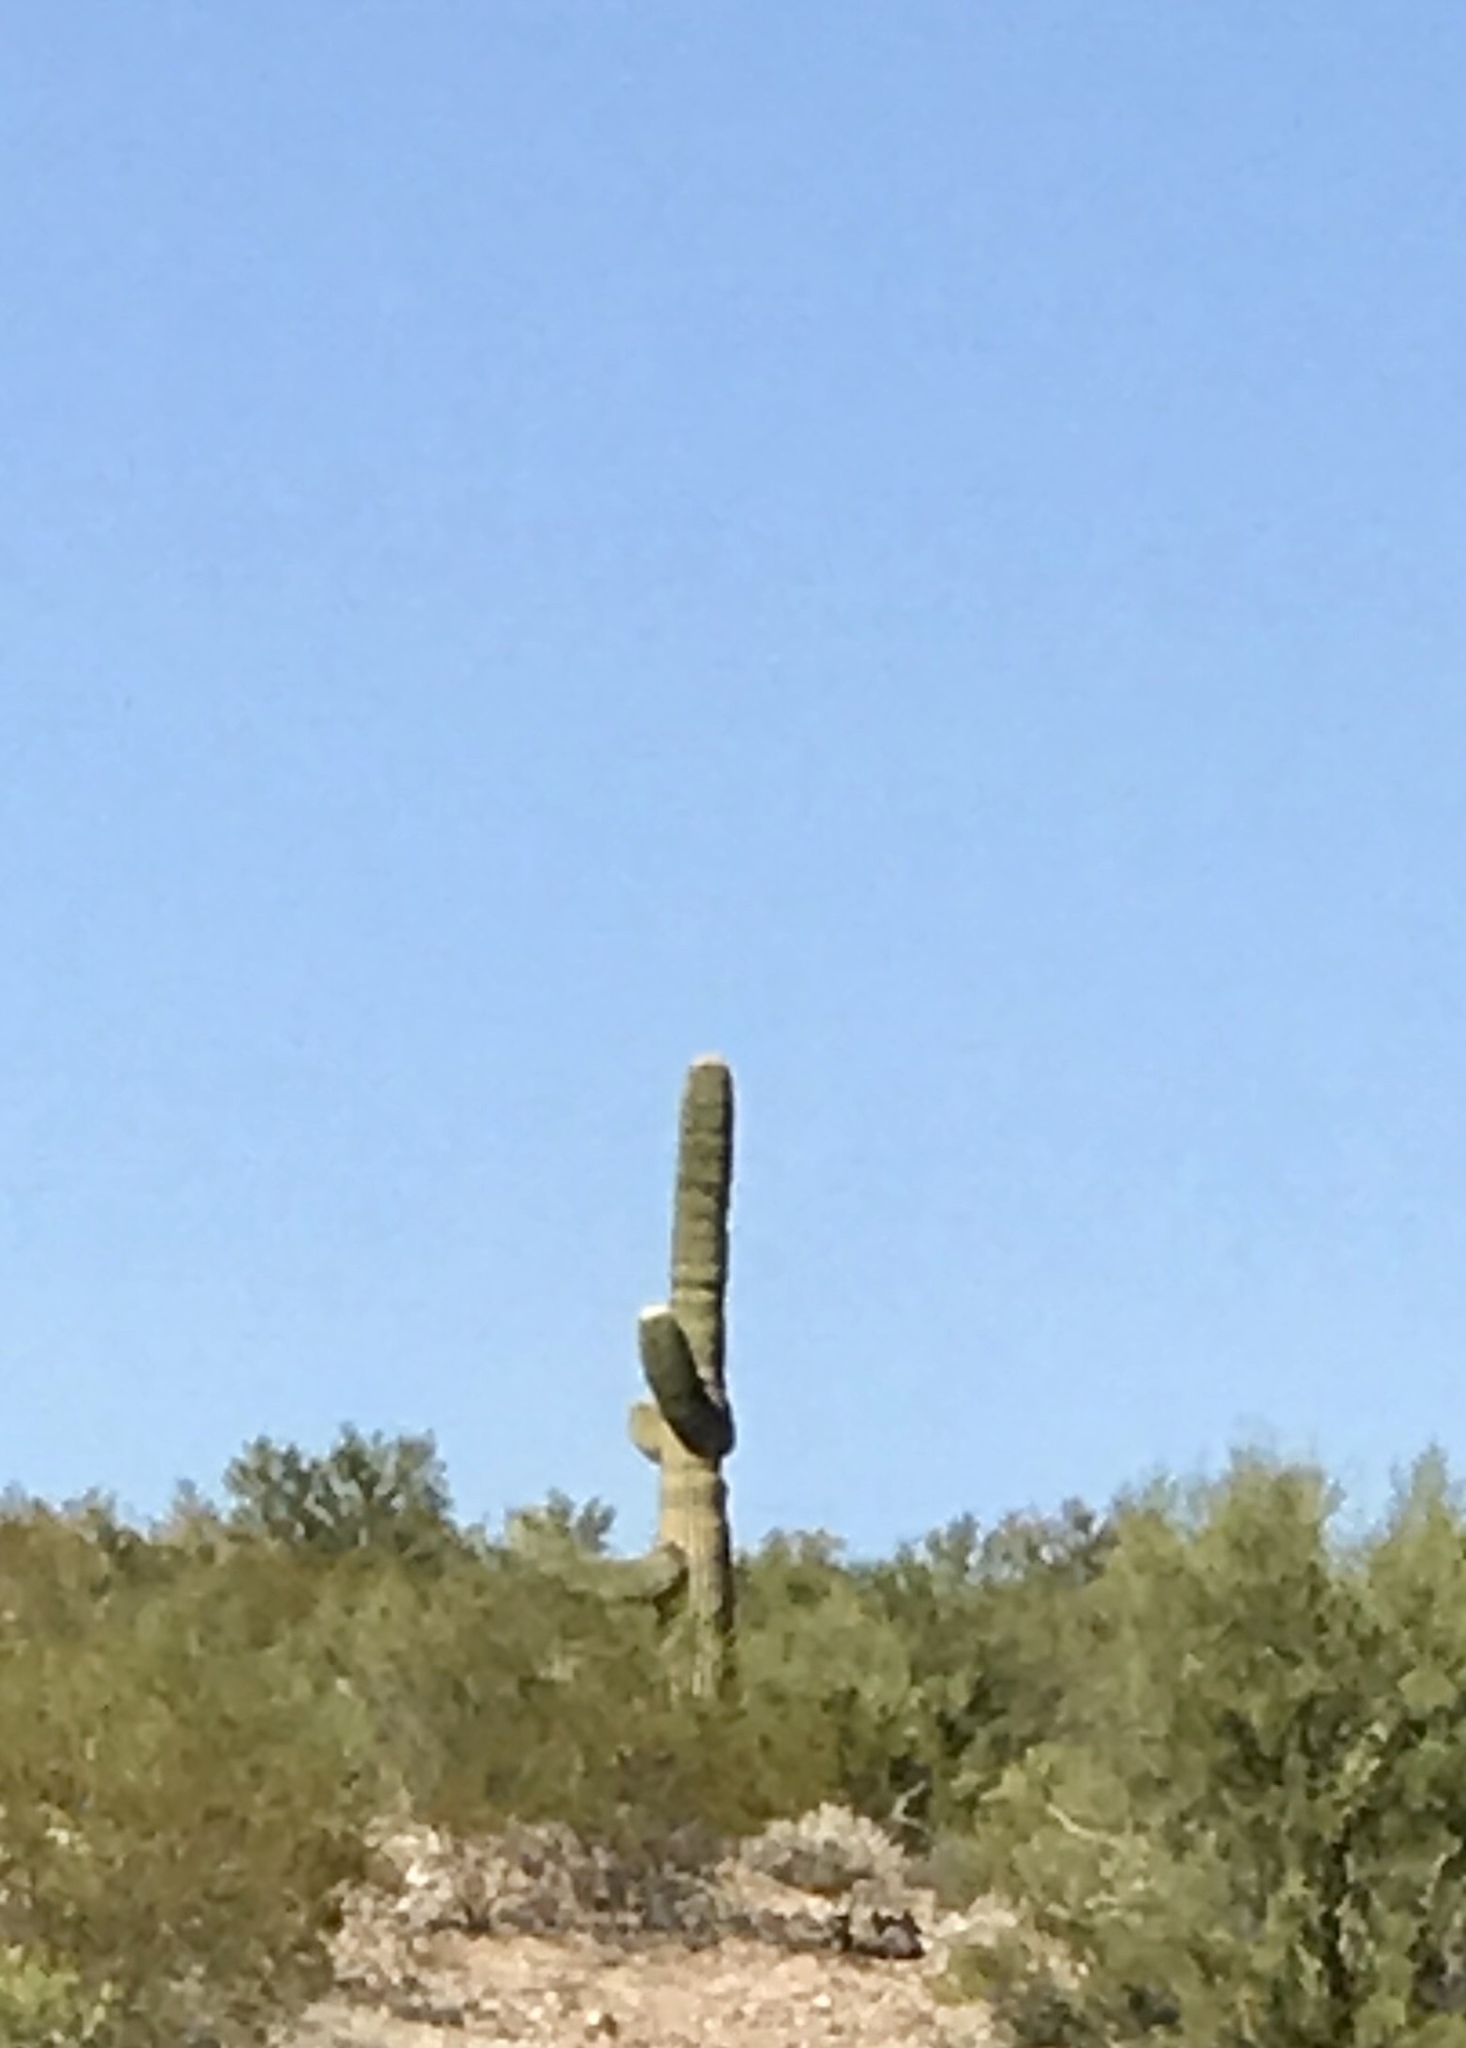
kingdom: Plantae
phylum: Tracheophyta
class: Magnoliopsida
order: Caryophyllales
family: Cactaceae
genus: Carnegiea
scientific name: Carnegiea gigantea
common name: Saguaro
